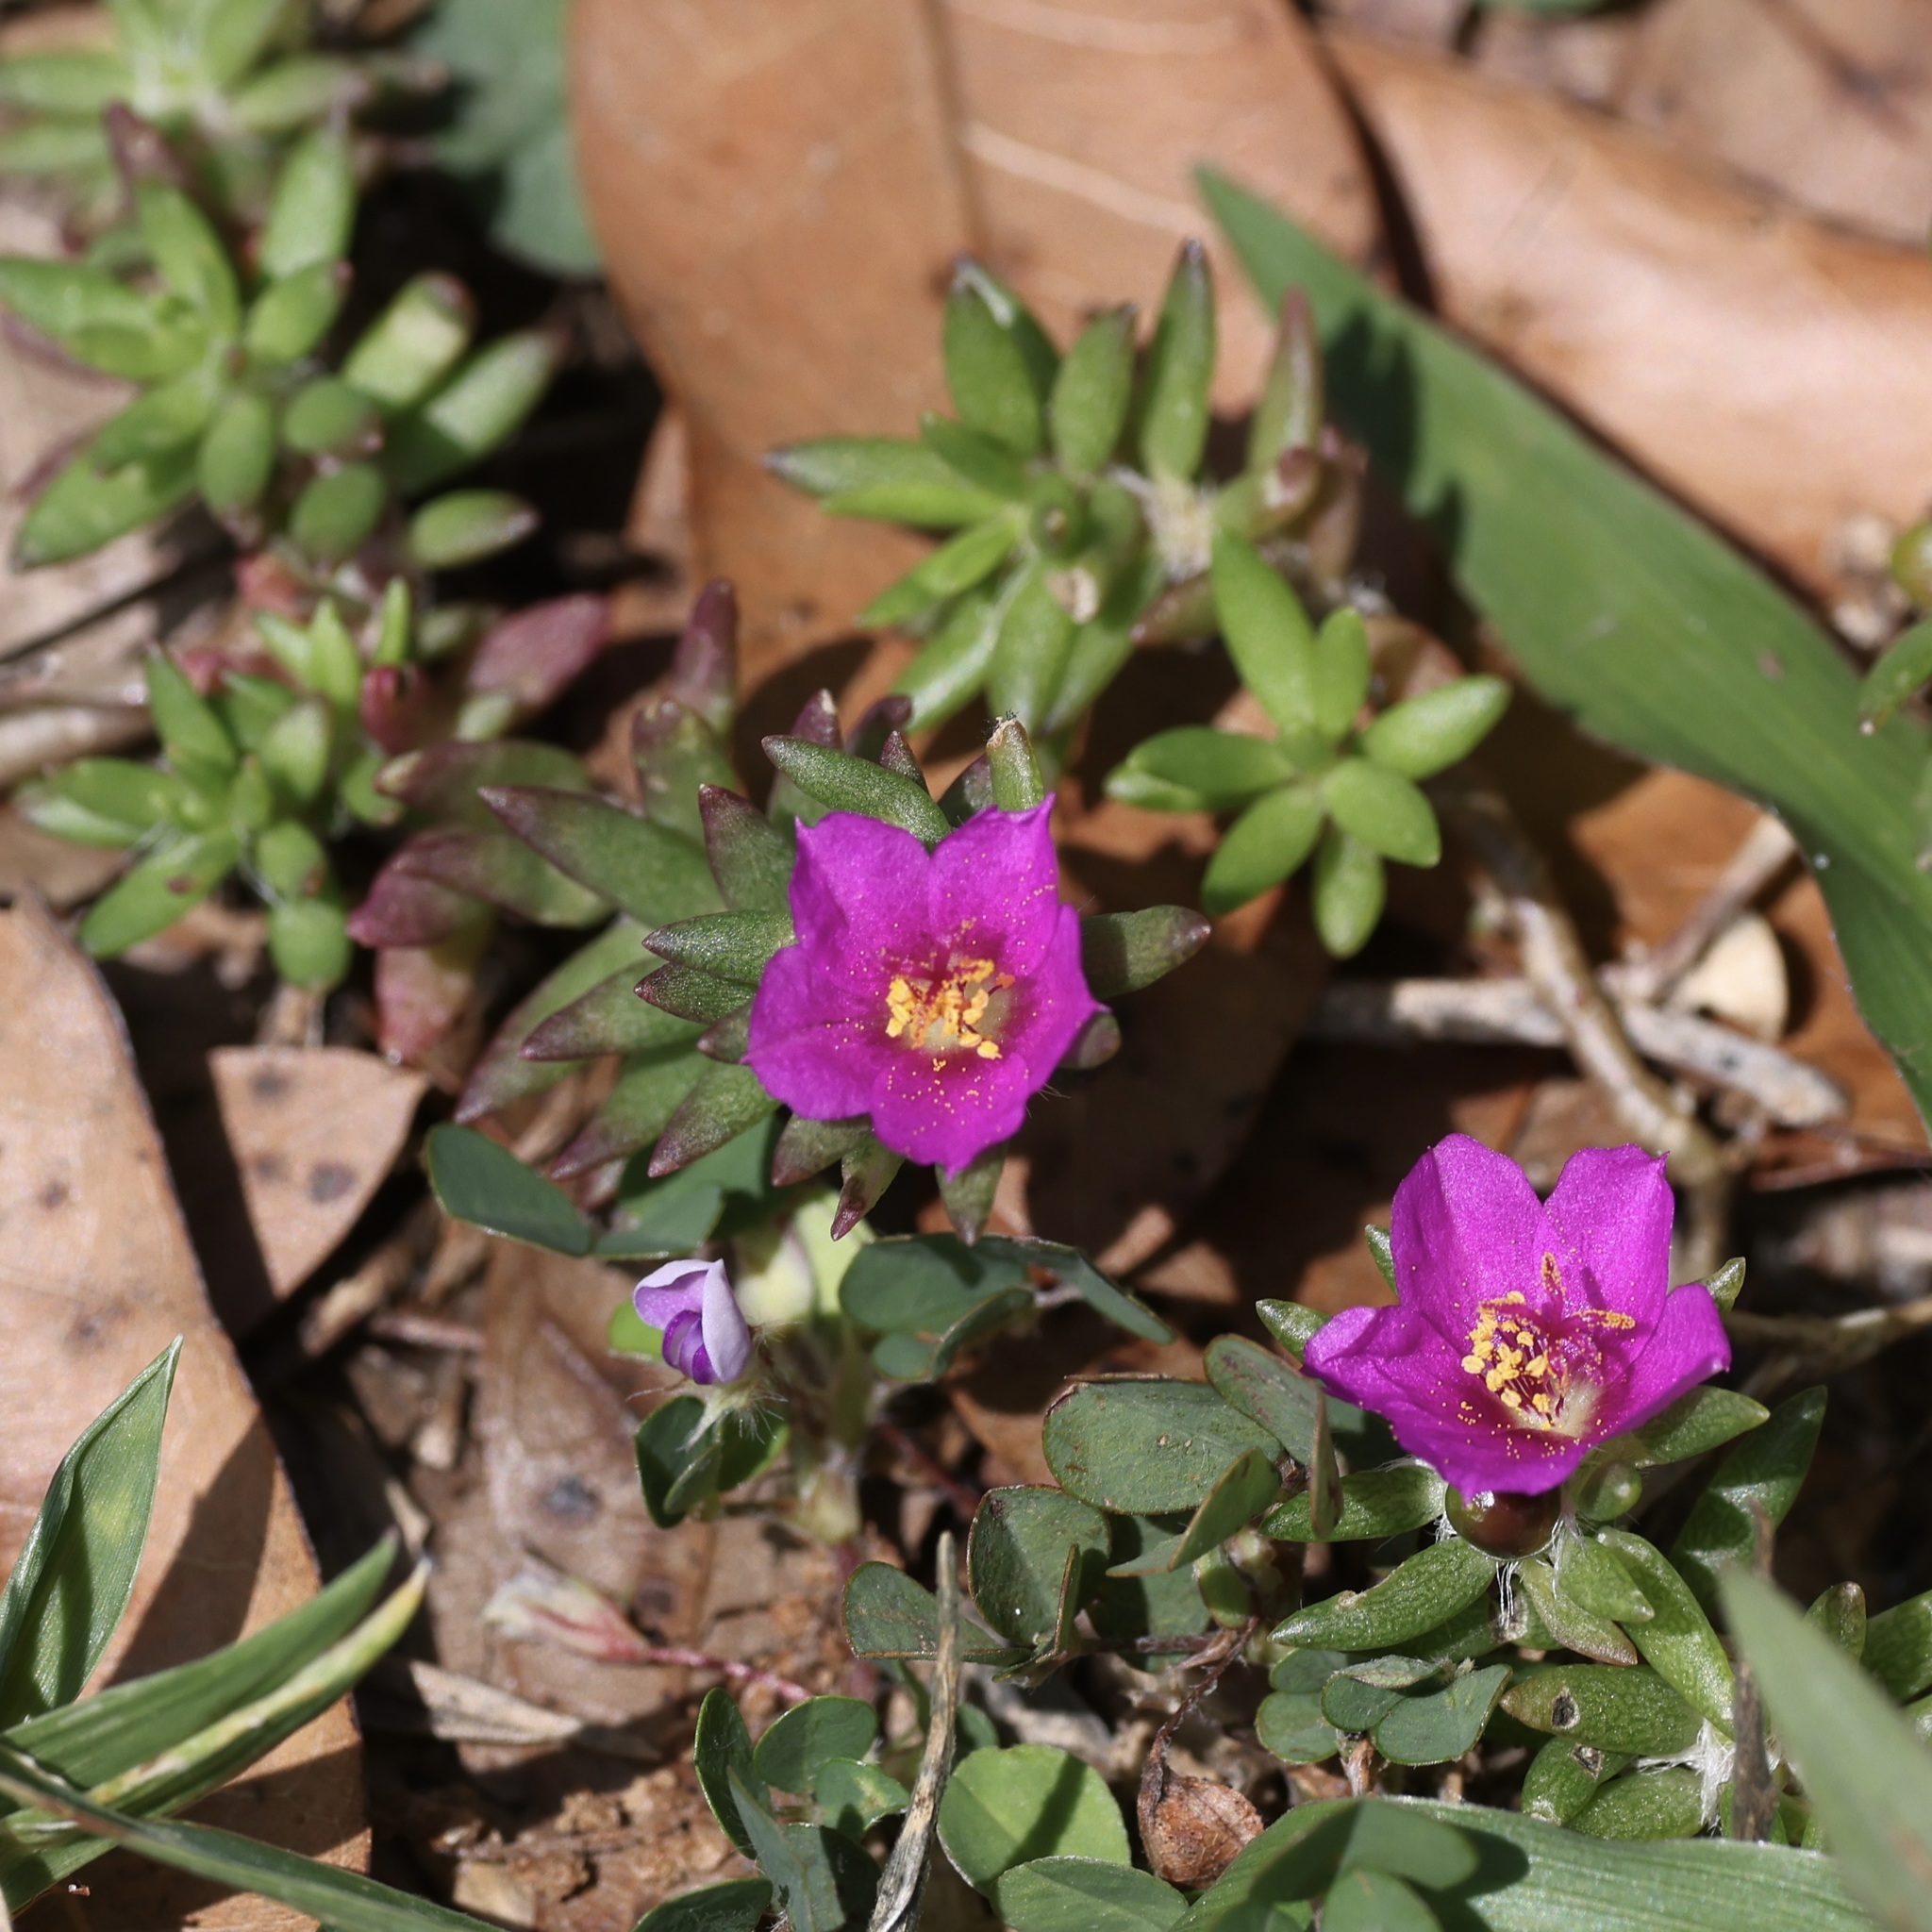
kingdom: Plantae
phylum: Tracheophyta
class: Magnoliopsida
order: Caryophyllales
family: Portulacaceae
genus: Portulaca
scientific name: Portulaca pilosa
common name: Kiss me quick
